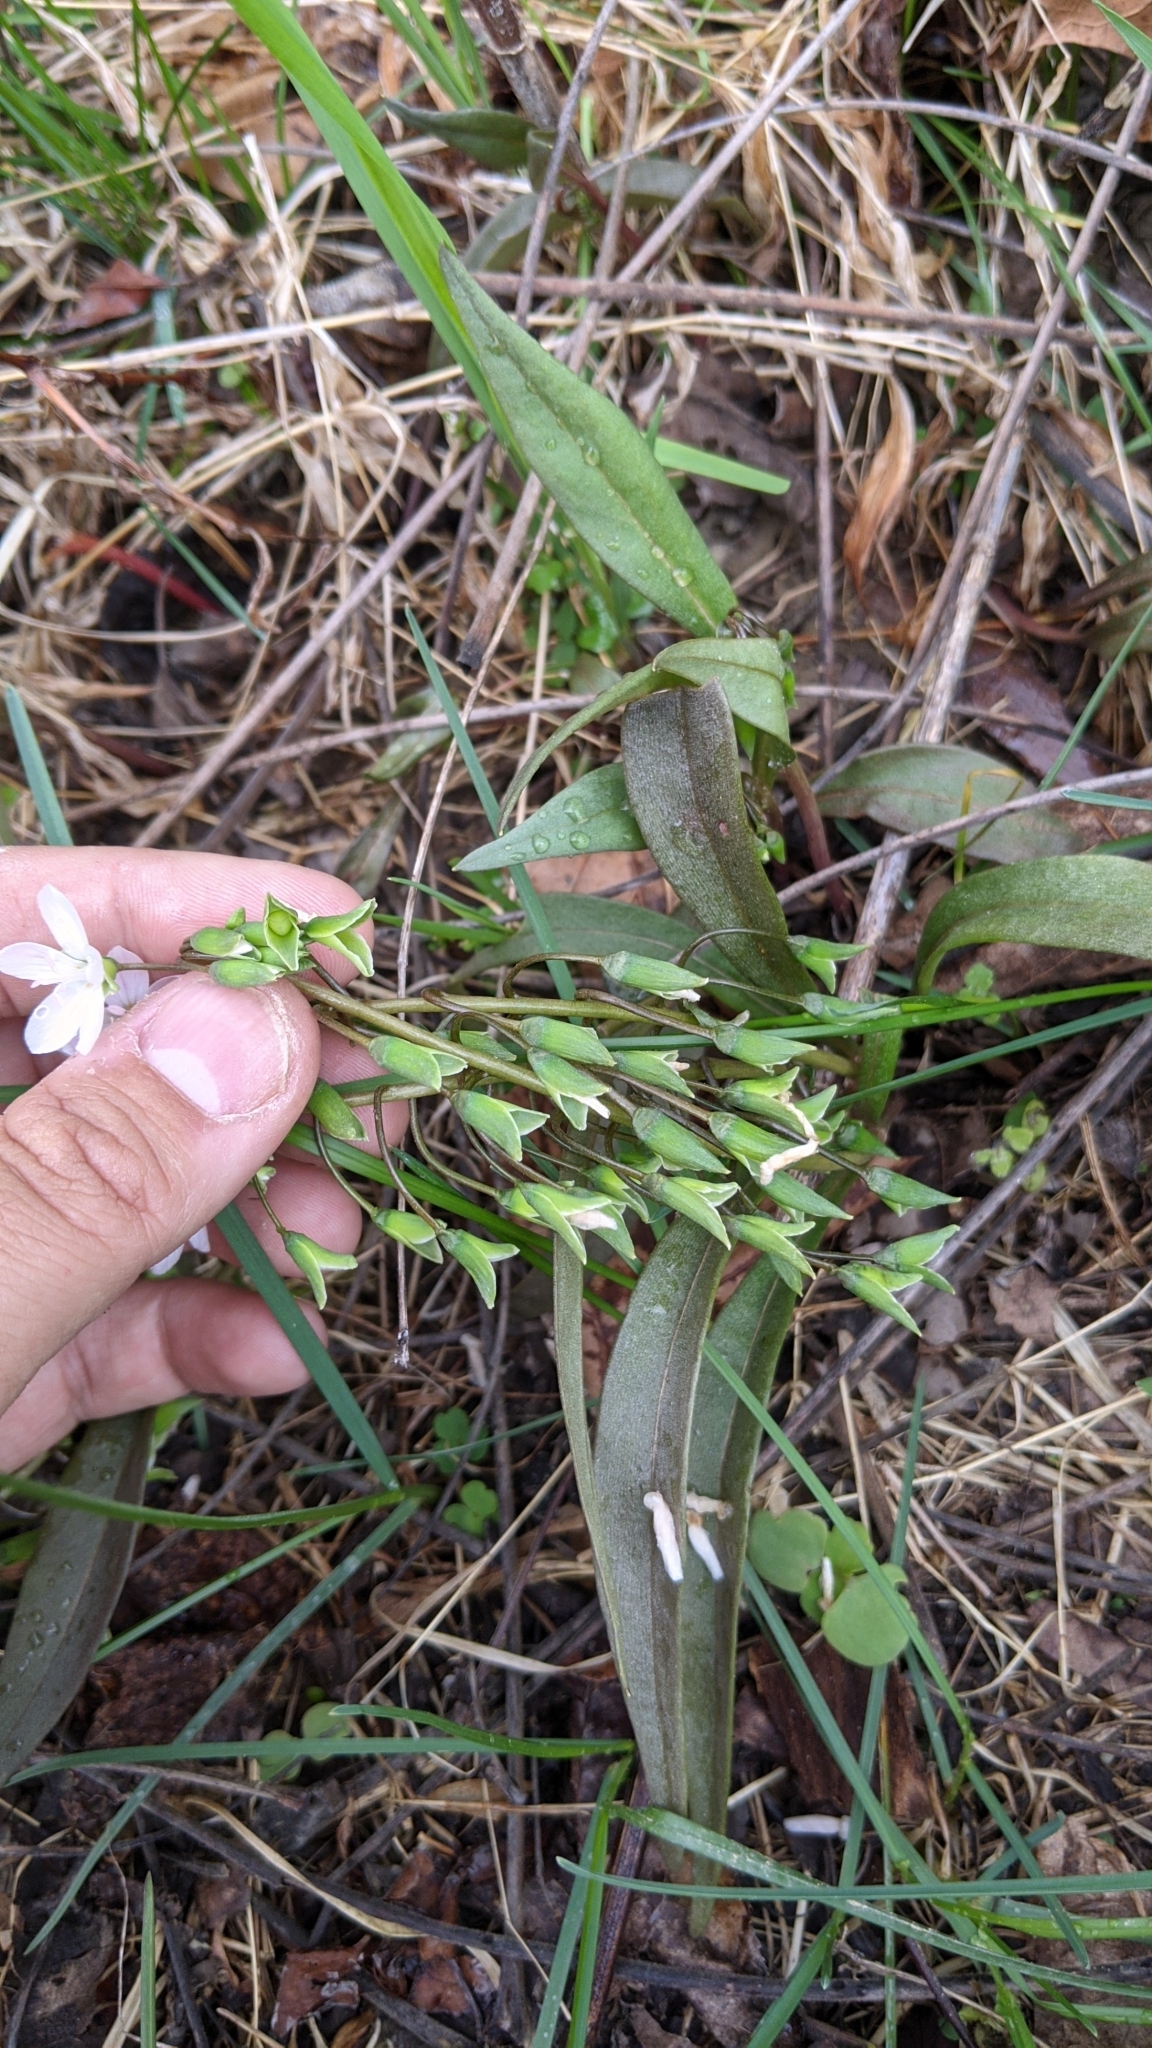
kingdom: Plantae
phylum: Tracheophyta
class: Magnoliopsida
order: Caryophyllales
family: Montiaceae
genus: Claytonia
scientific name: Claytonia virginica
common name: Virginia springbeauty
